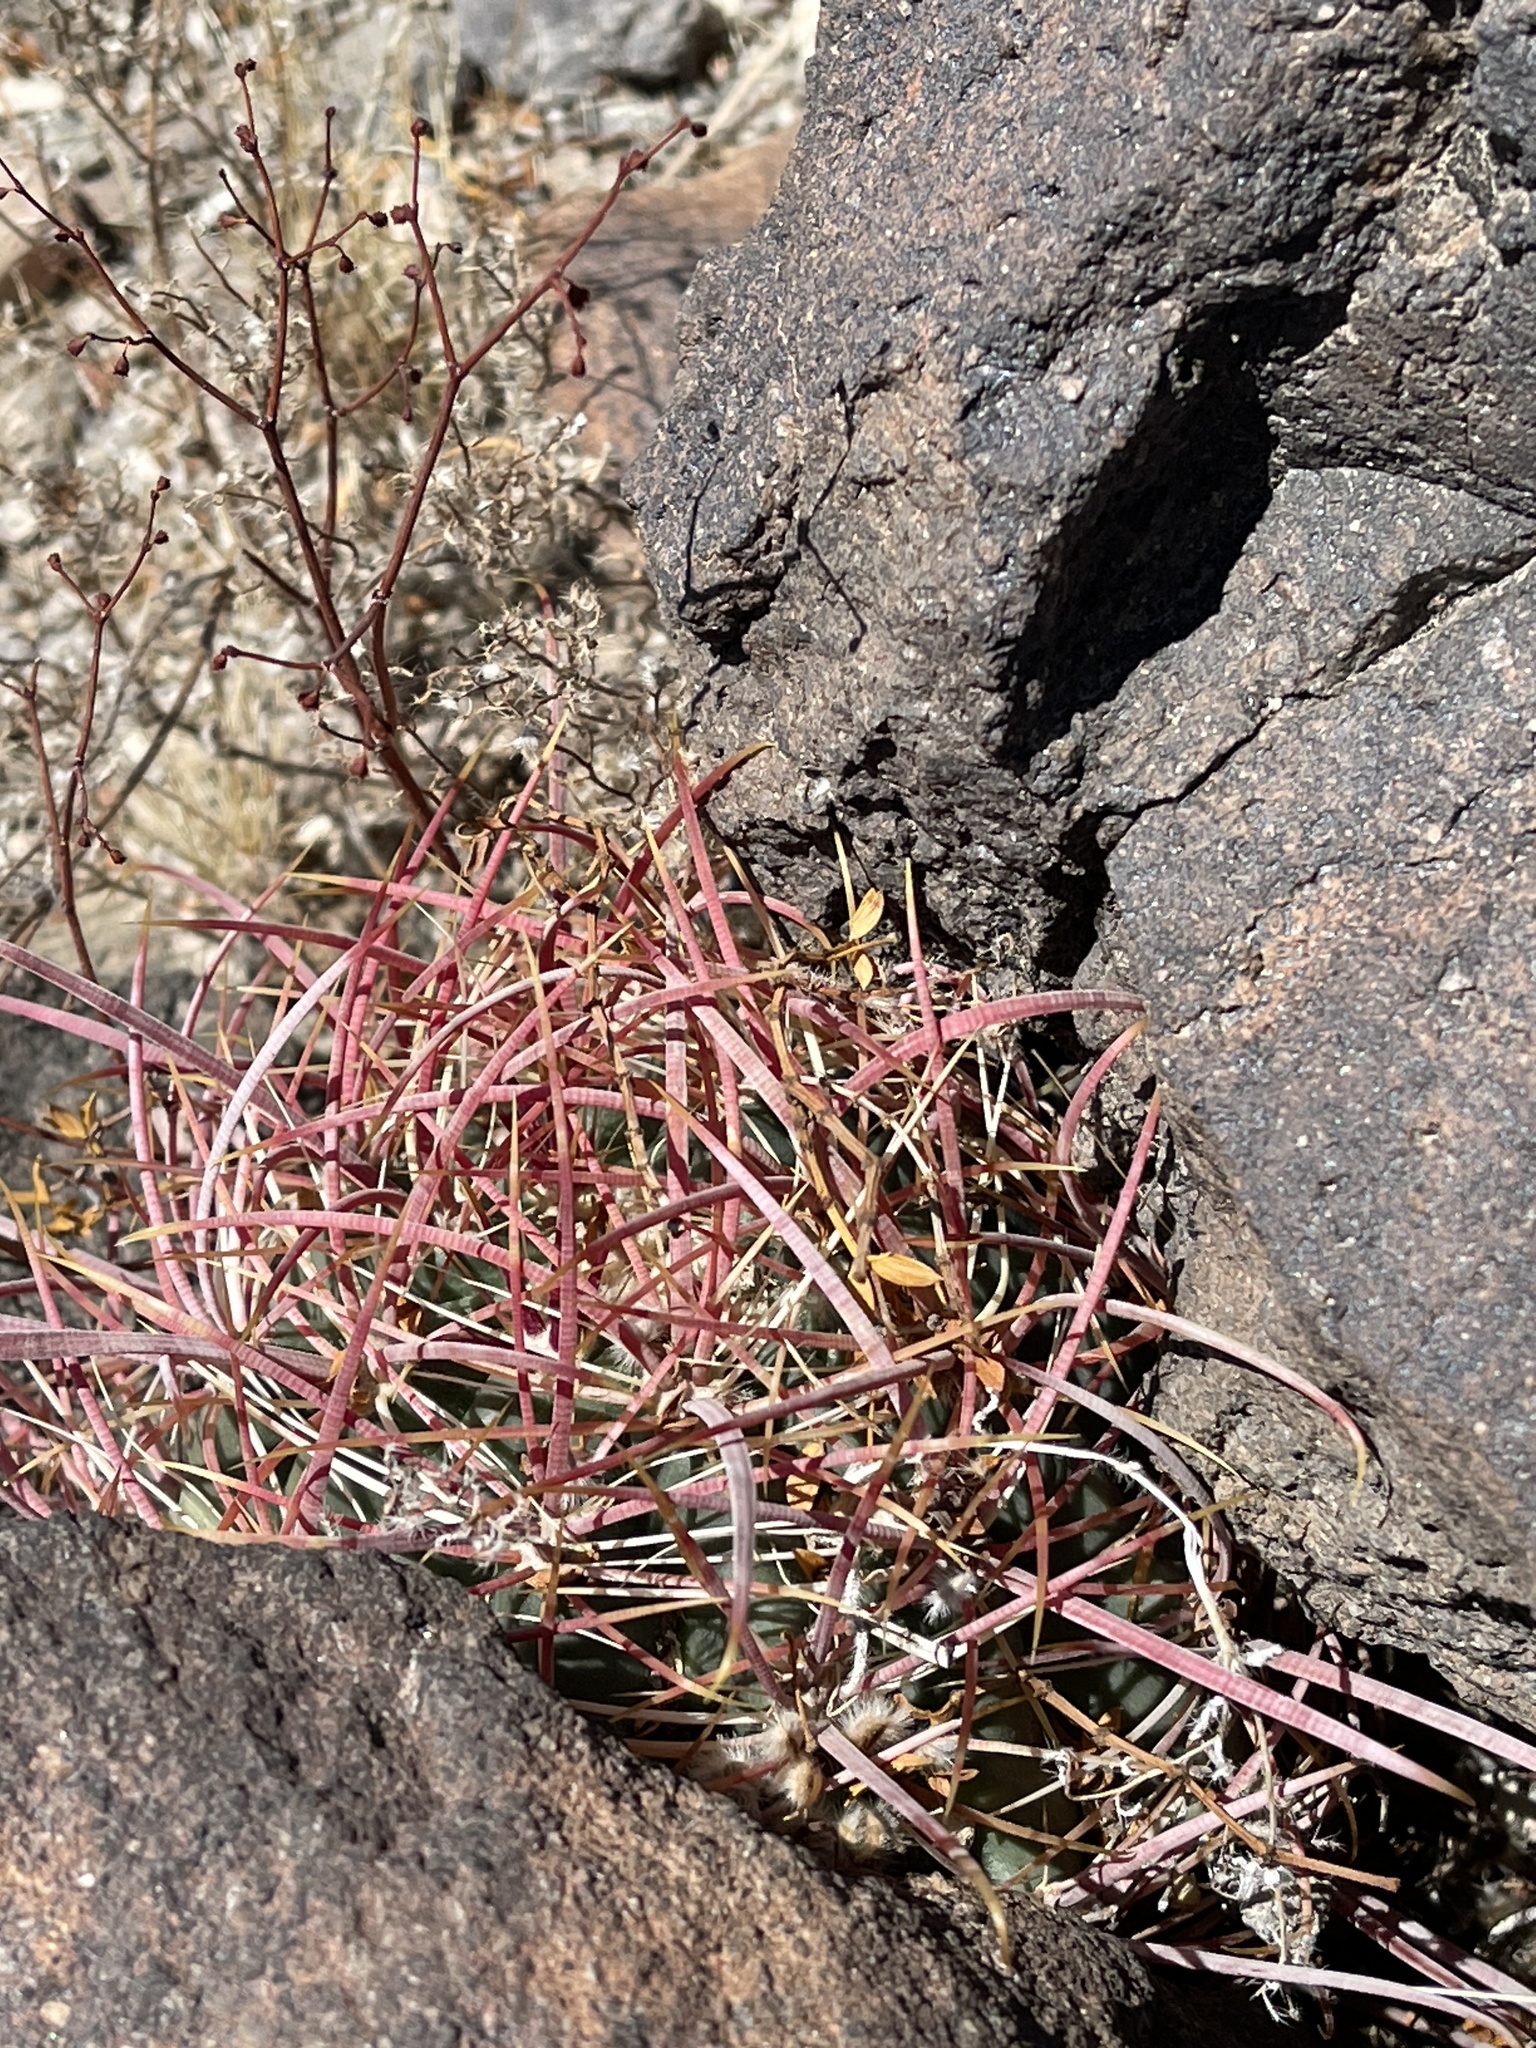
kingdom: Plantae
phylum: Tracheophyta
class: Magnoliopsida
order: Caryophyllales
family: Cactaceae
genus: Ferocactus
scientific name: Ferocactus cylindraceus
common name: California barrel cactus
